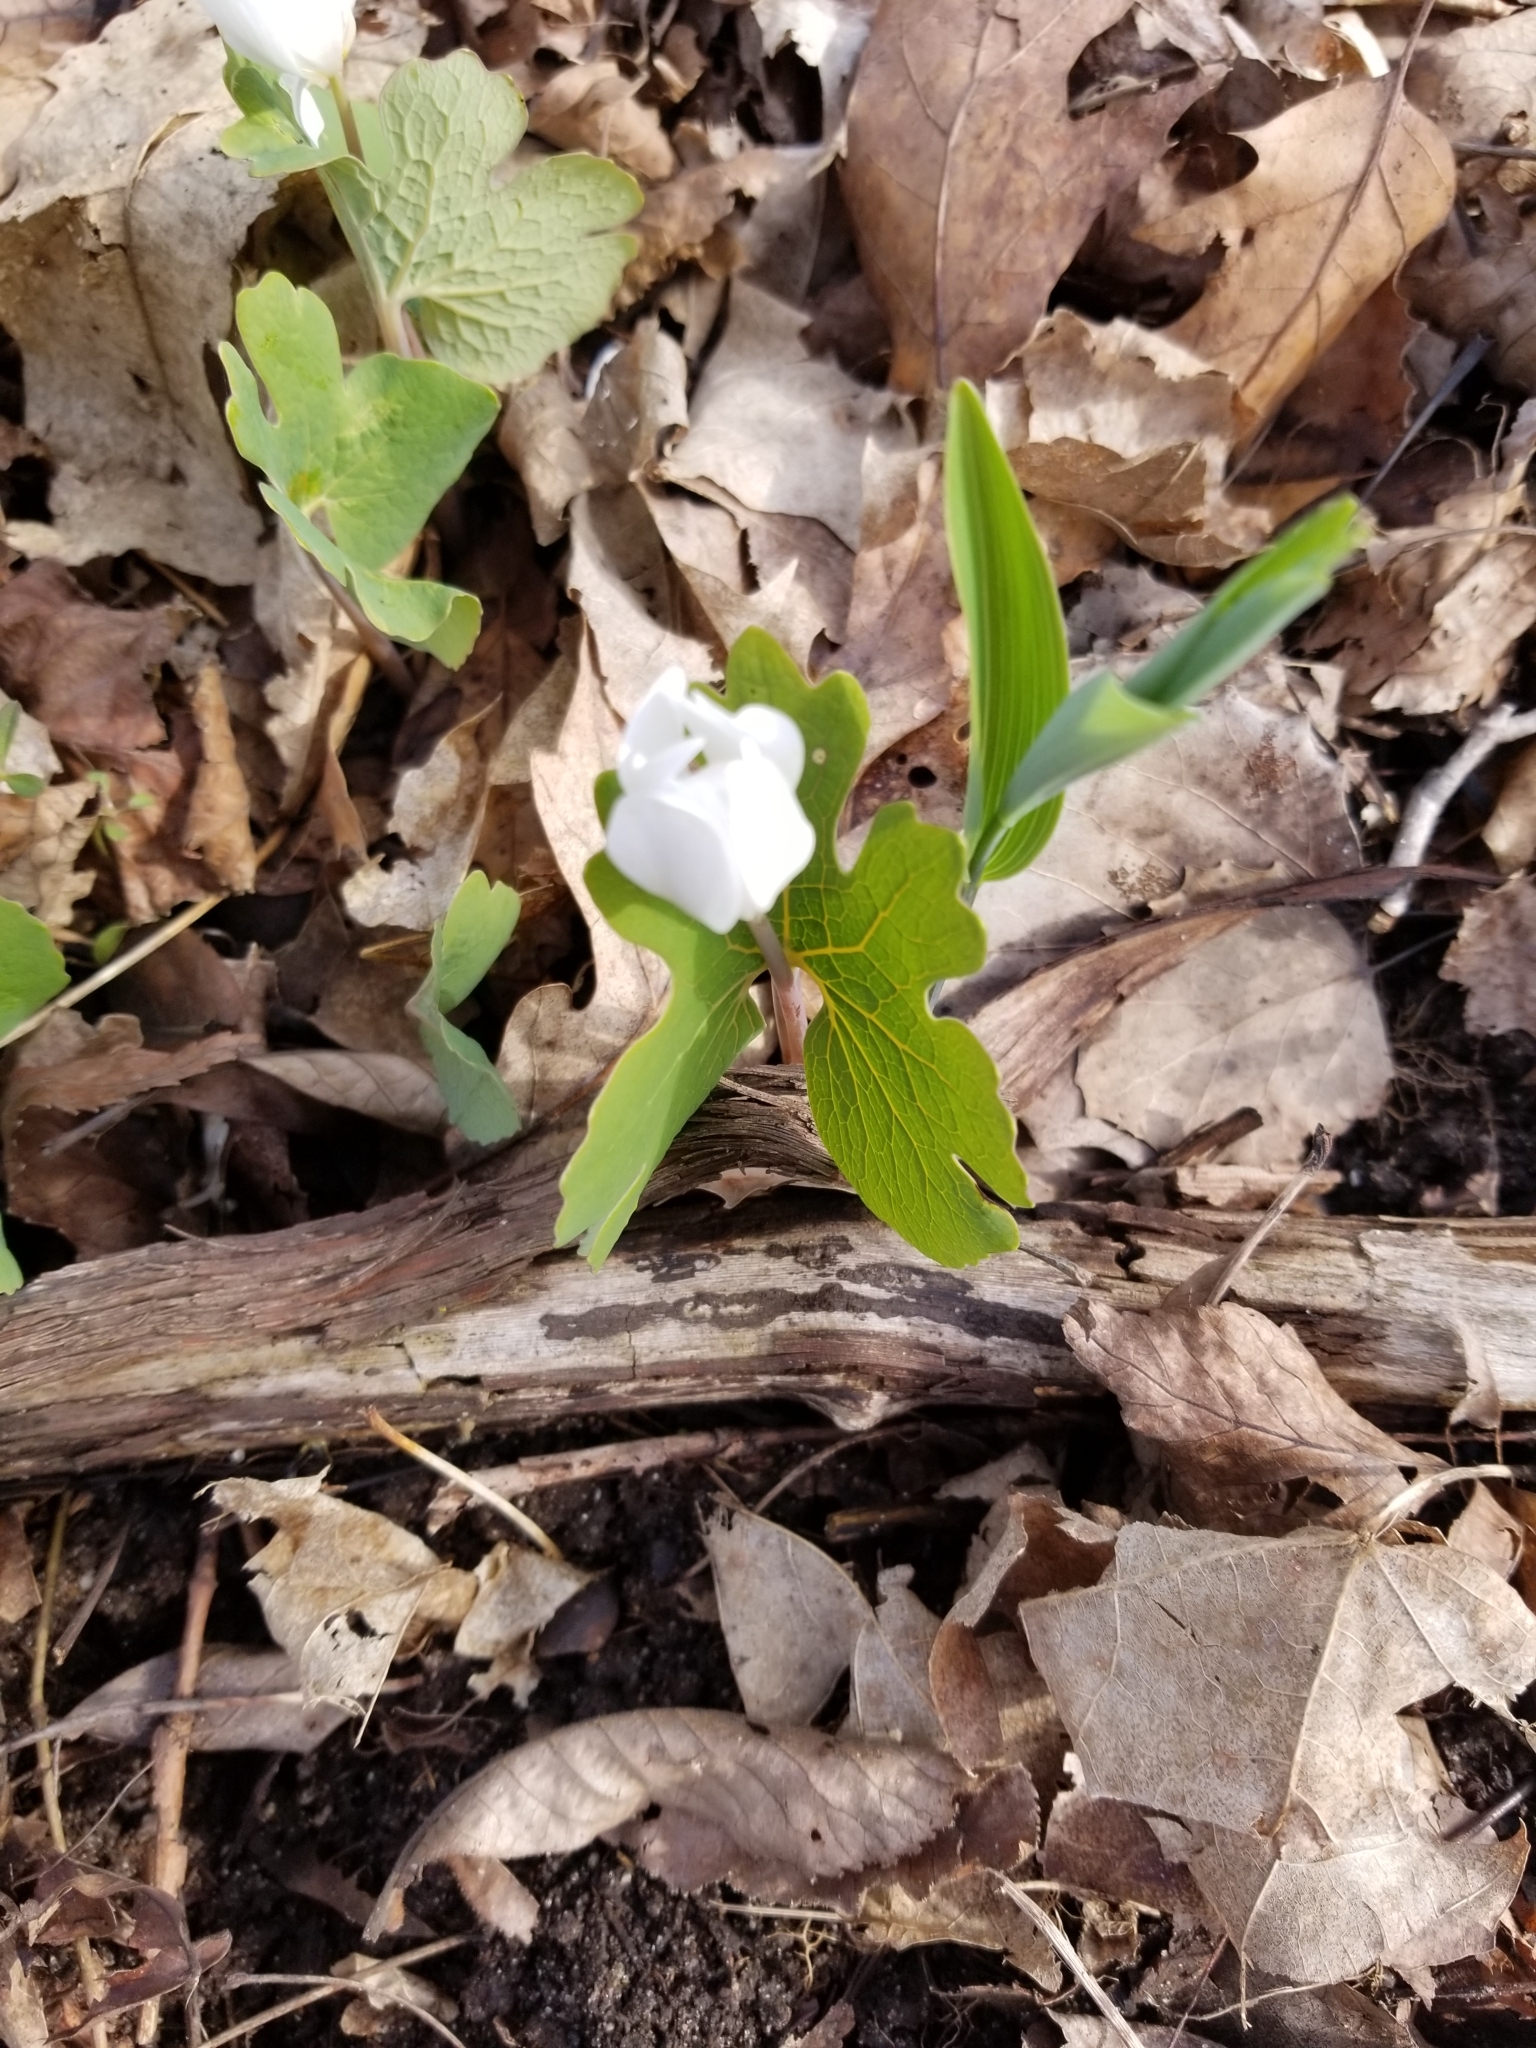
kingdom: Plantae
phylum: Tracheophyta
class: Magnoliopsida
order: Ranunculales
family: Papaveraceae
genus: Sanguinaria
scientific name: Sanguinaria canadensis
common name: Bloodroot
